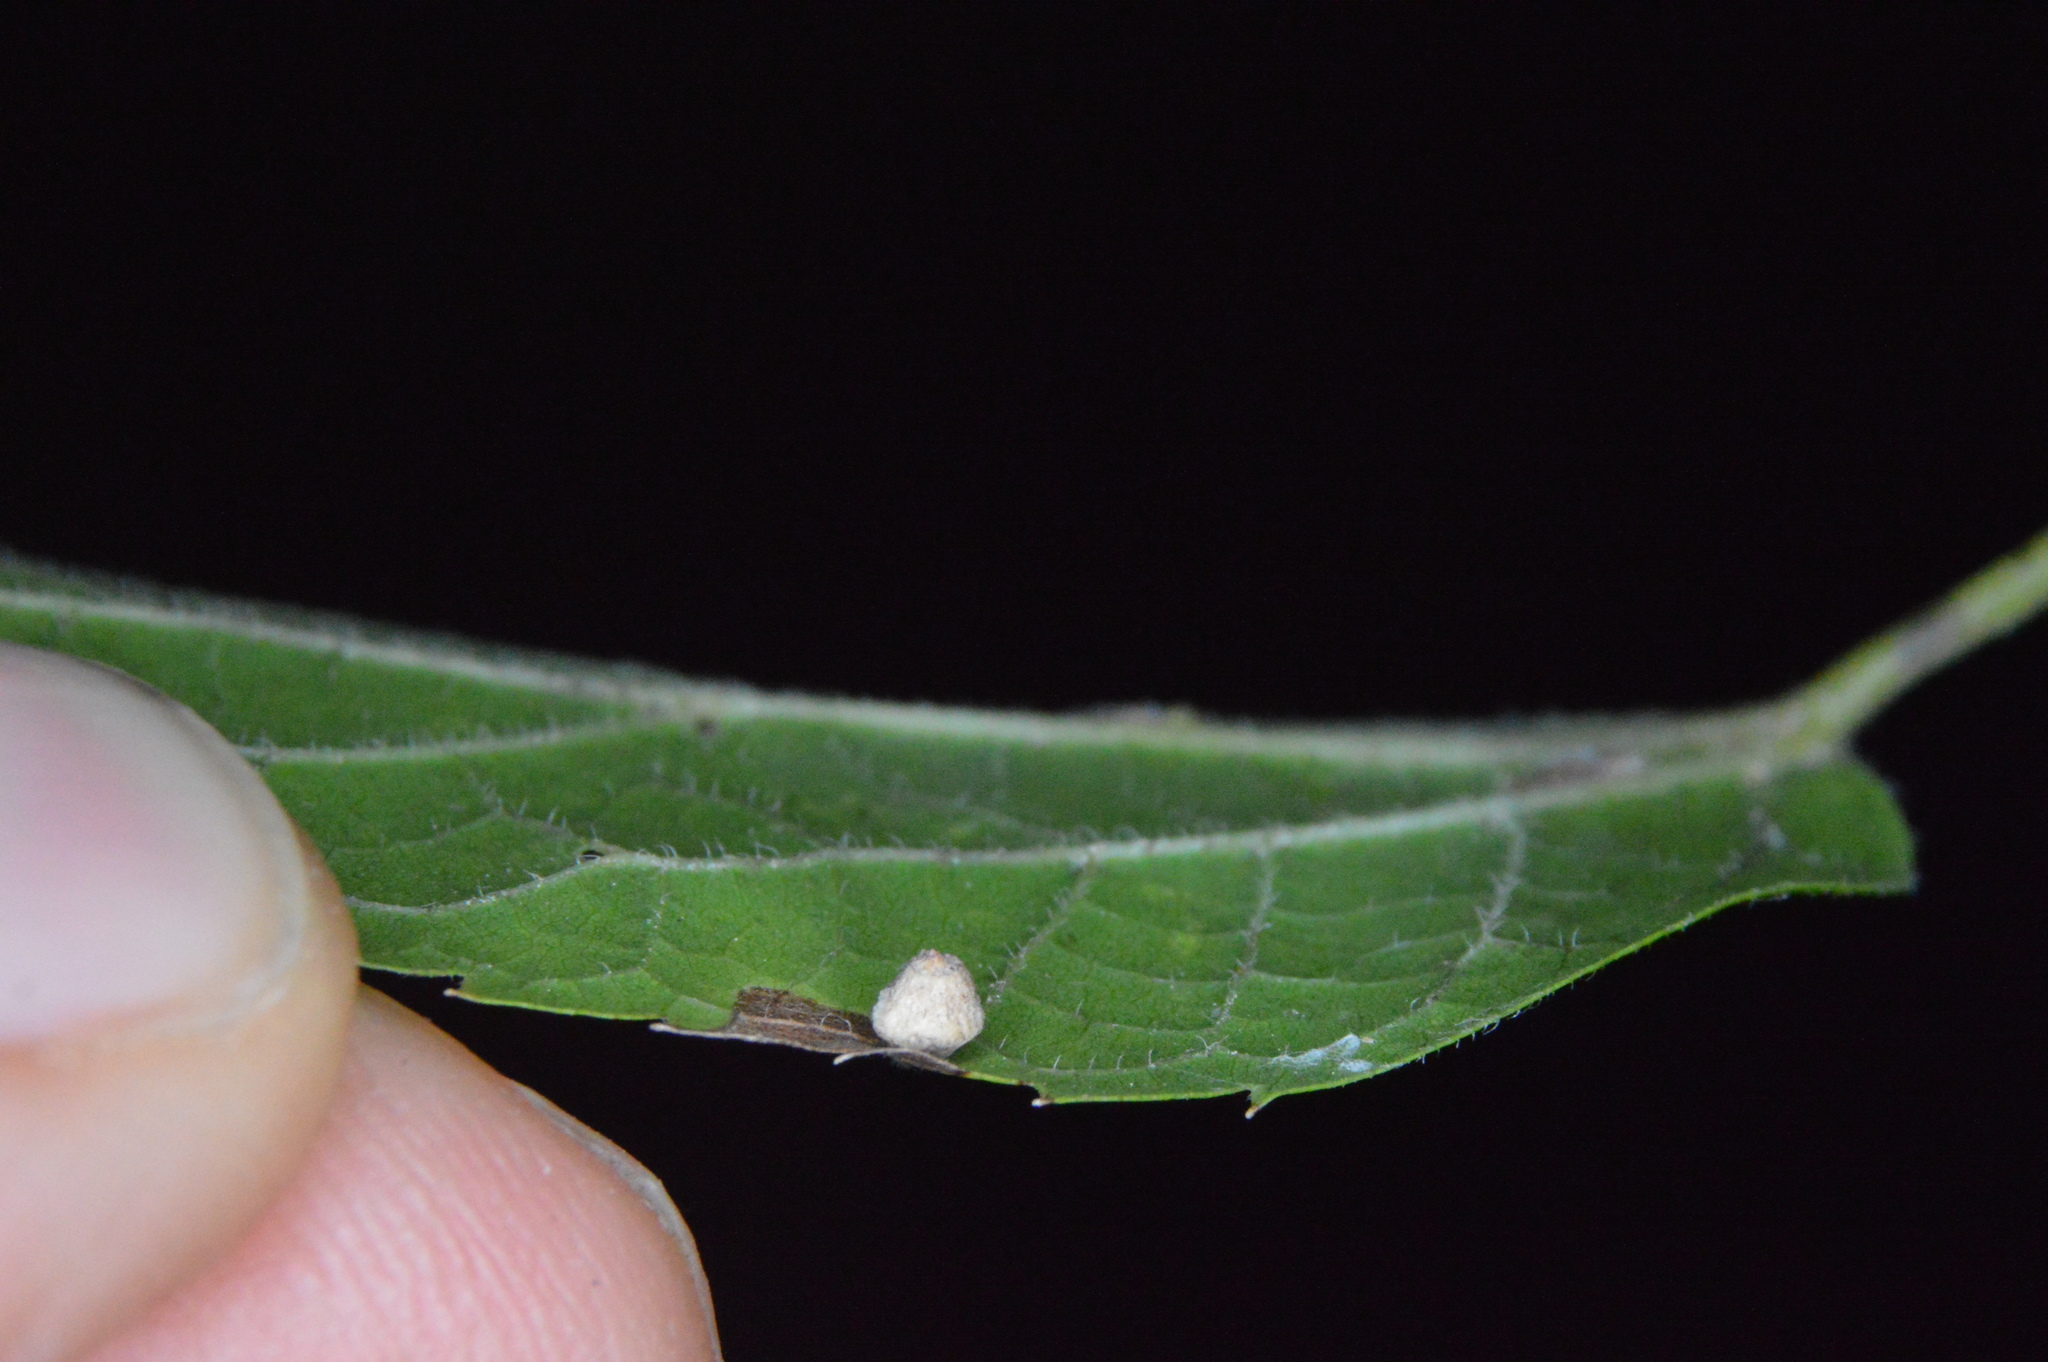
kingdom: Animalia
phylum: Arthropoda
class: Insecta
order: Diptera
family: Cecidomyiidae
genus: Celticecis
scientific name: Celticecis globosa
